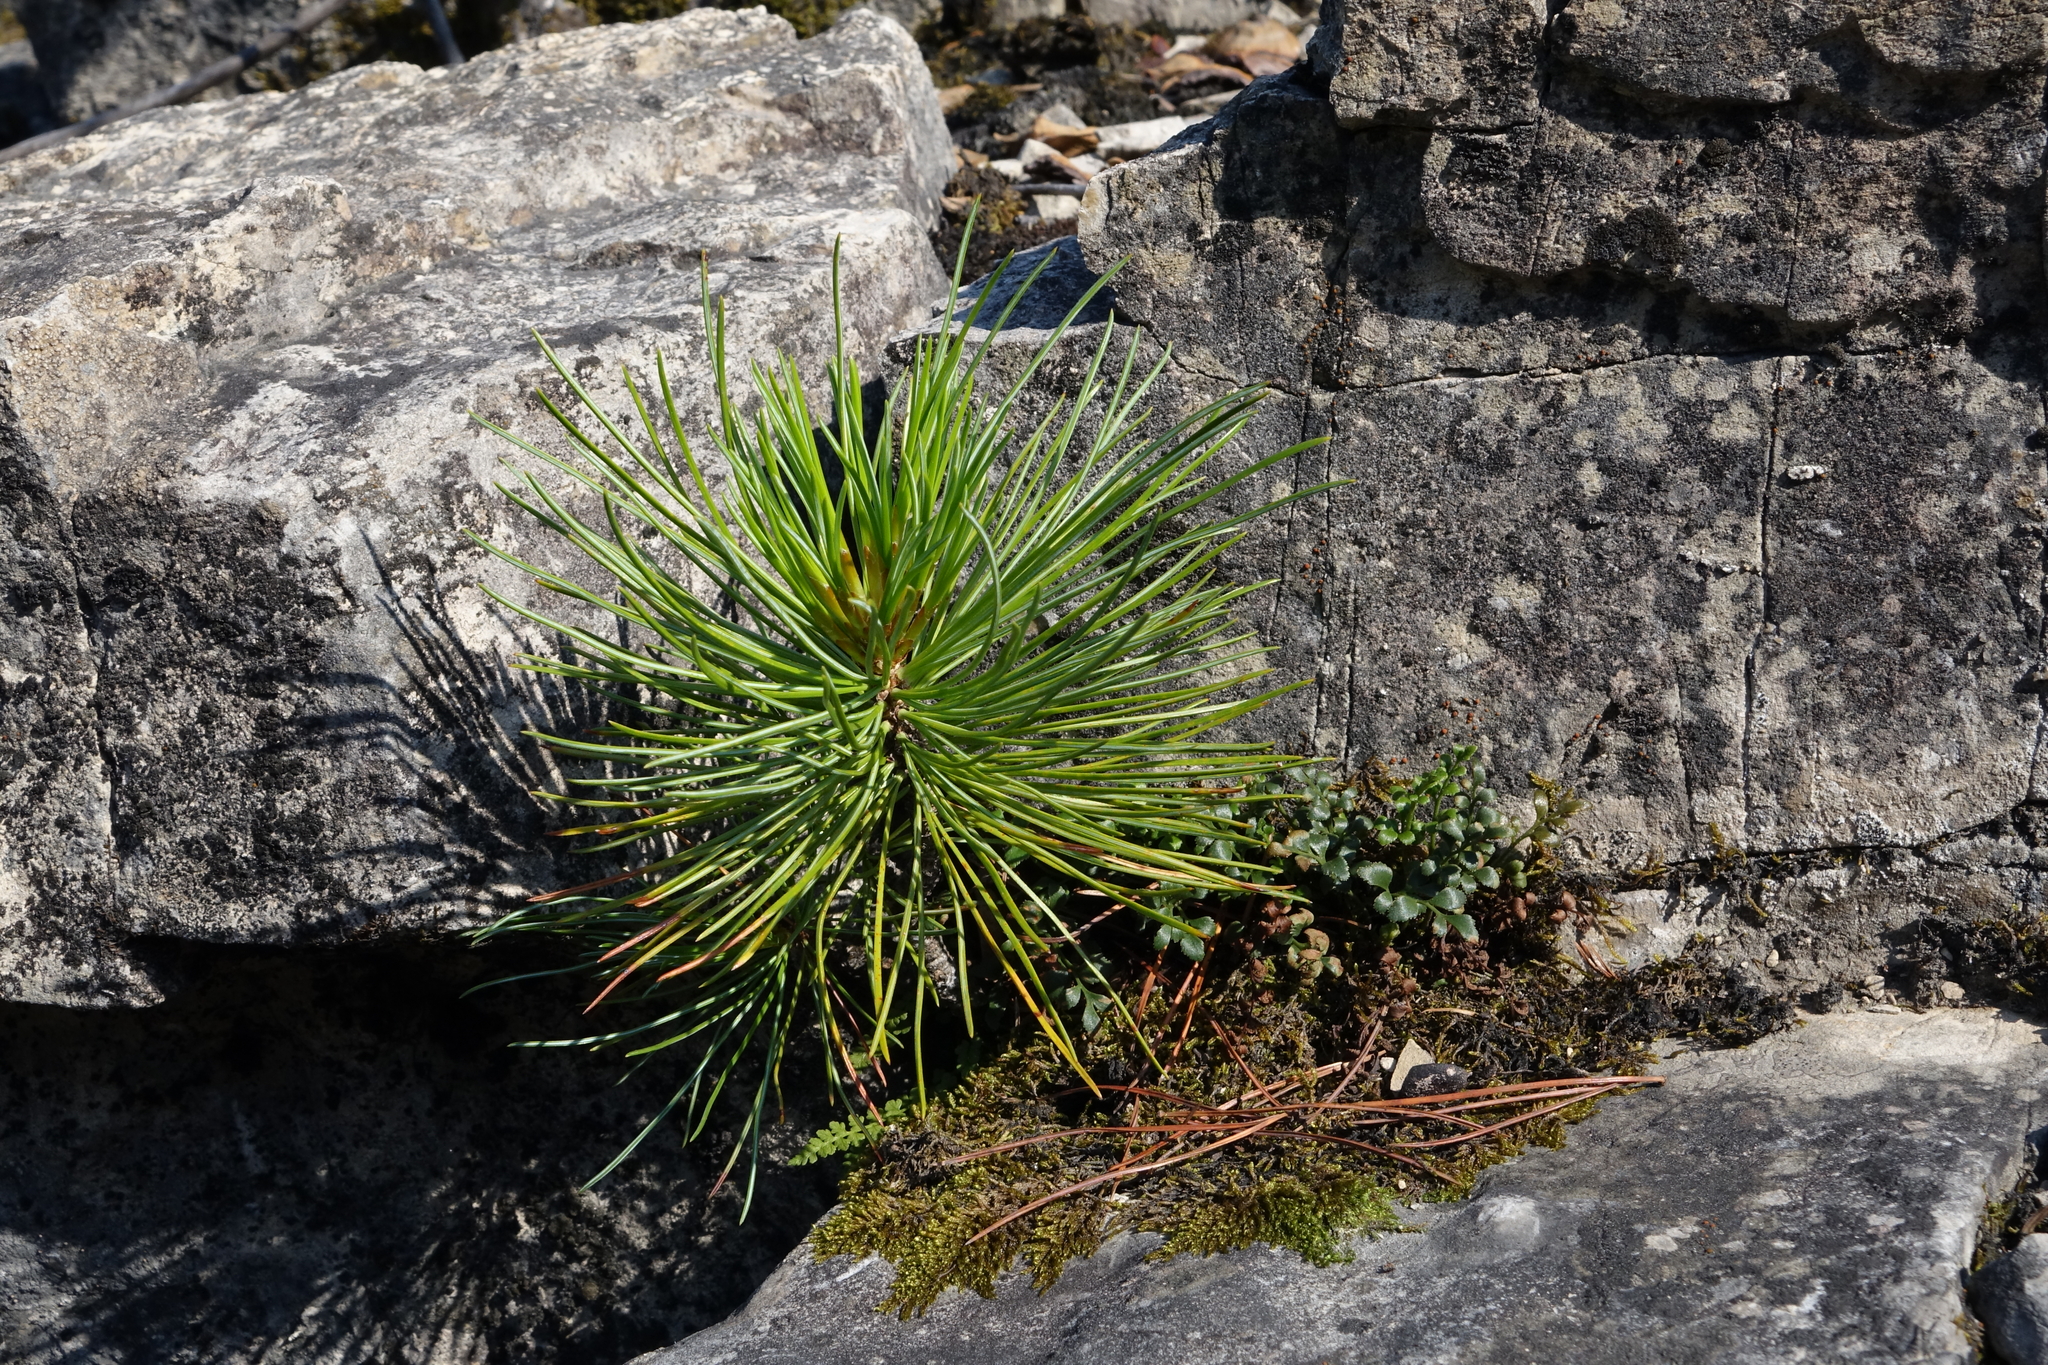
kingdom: Plantae
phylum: Tracheophyta
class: Pinopsida
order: Pinales
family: Pinaceae
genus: Pinus
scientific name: Pinus sylvestris
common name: Scots pine
